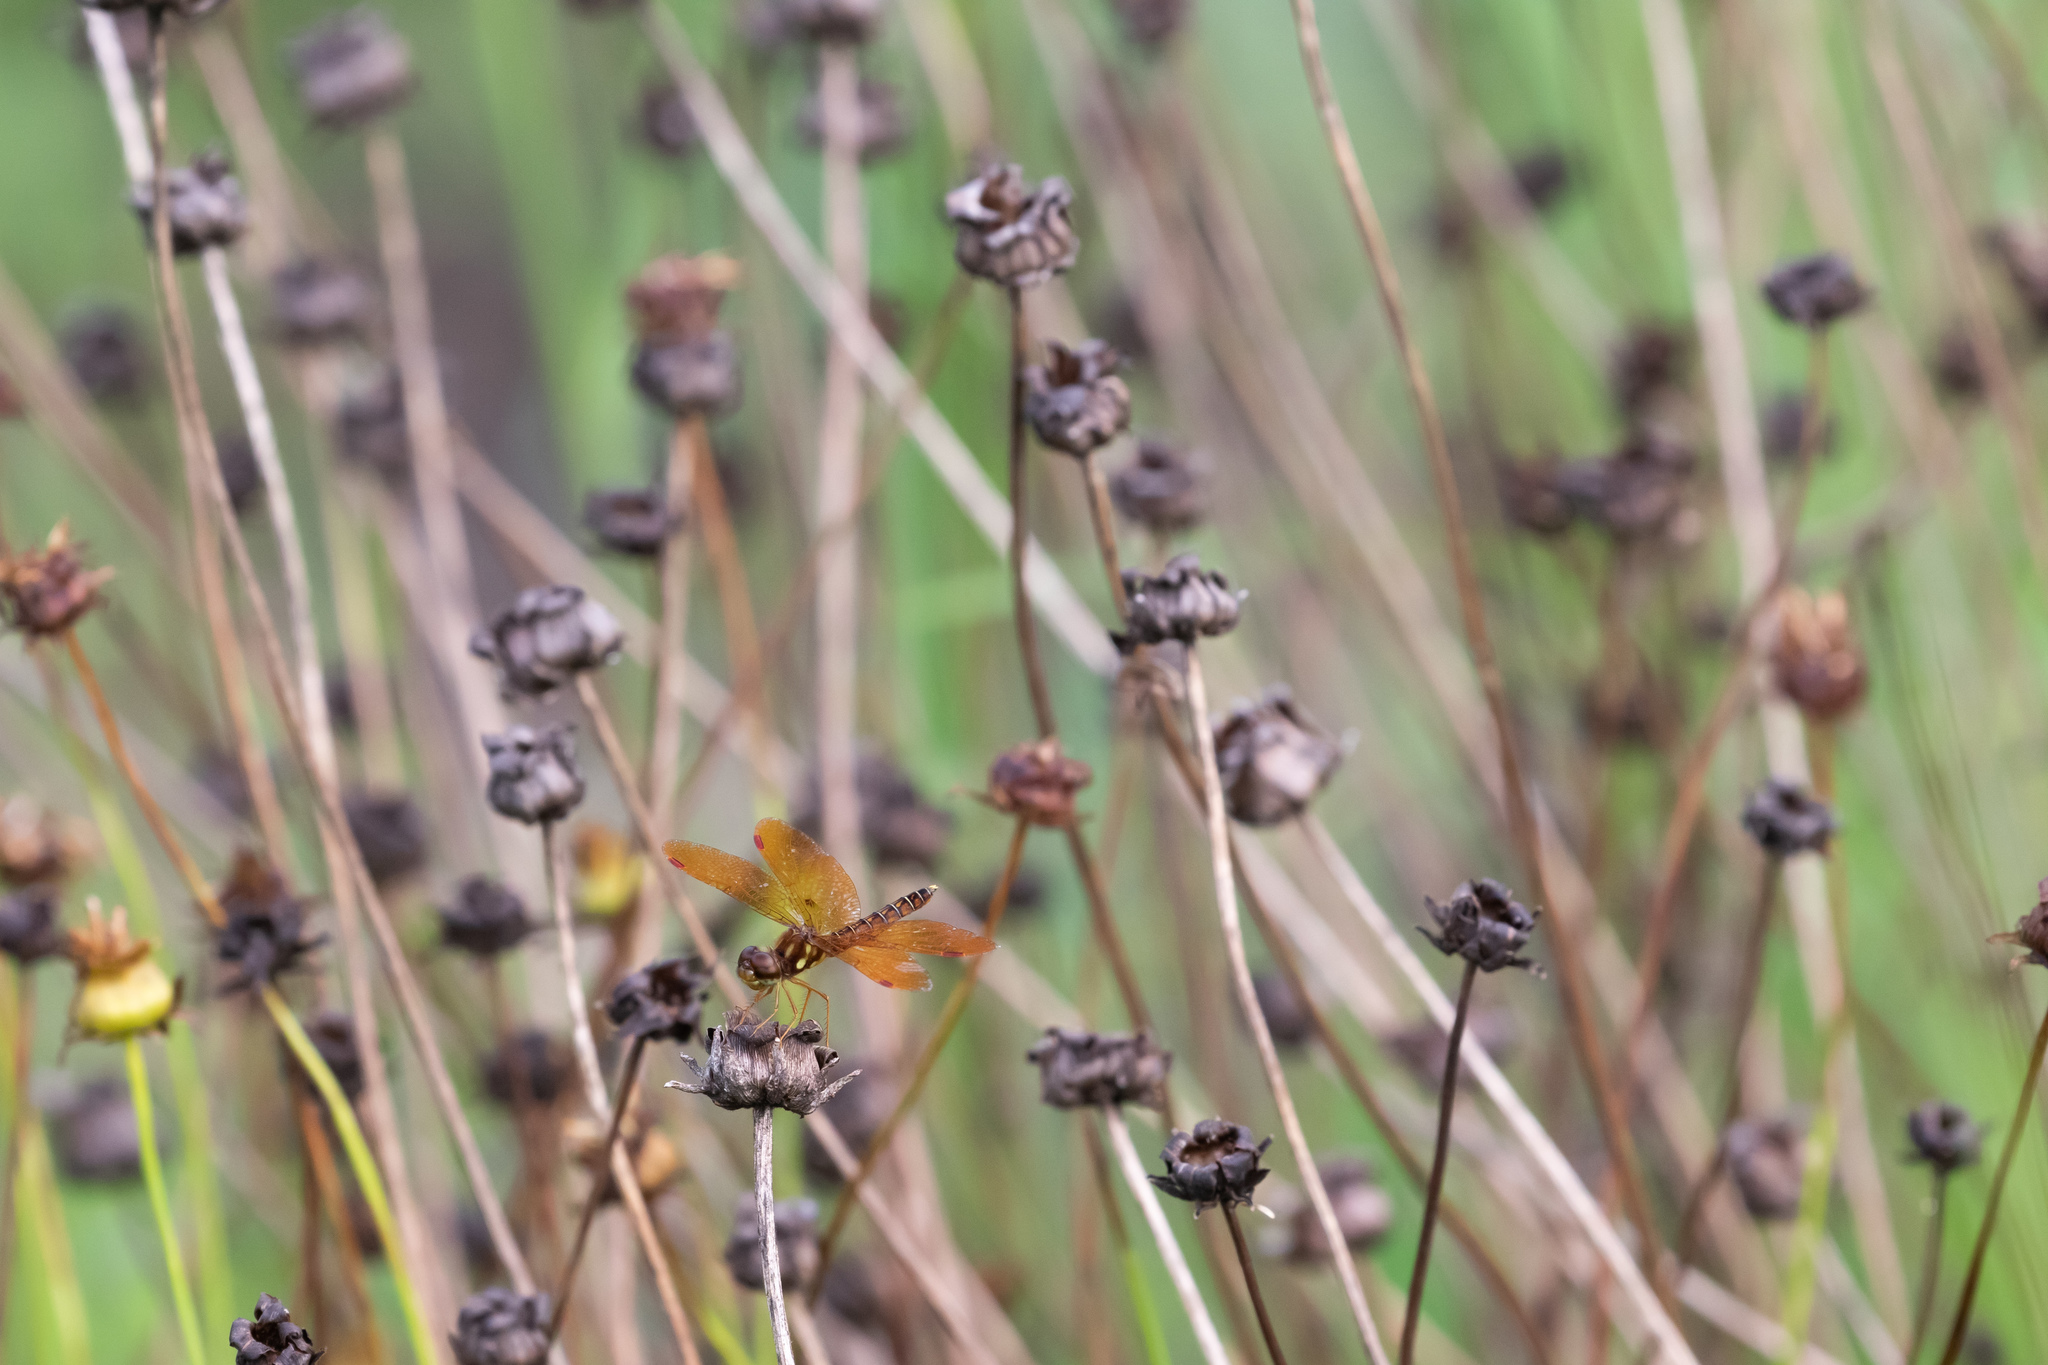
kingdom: Animalia
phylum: Arthropoda
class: Insecta
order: Odonata
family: Libellulidae
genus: Perithemis
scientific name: Perithemis tenera
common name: Eastern amberwing
